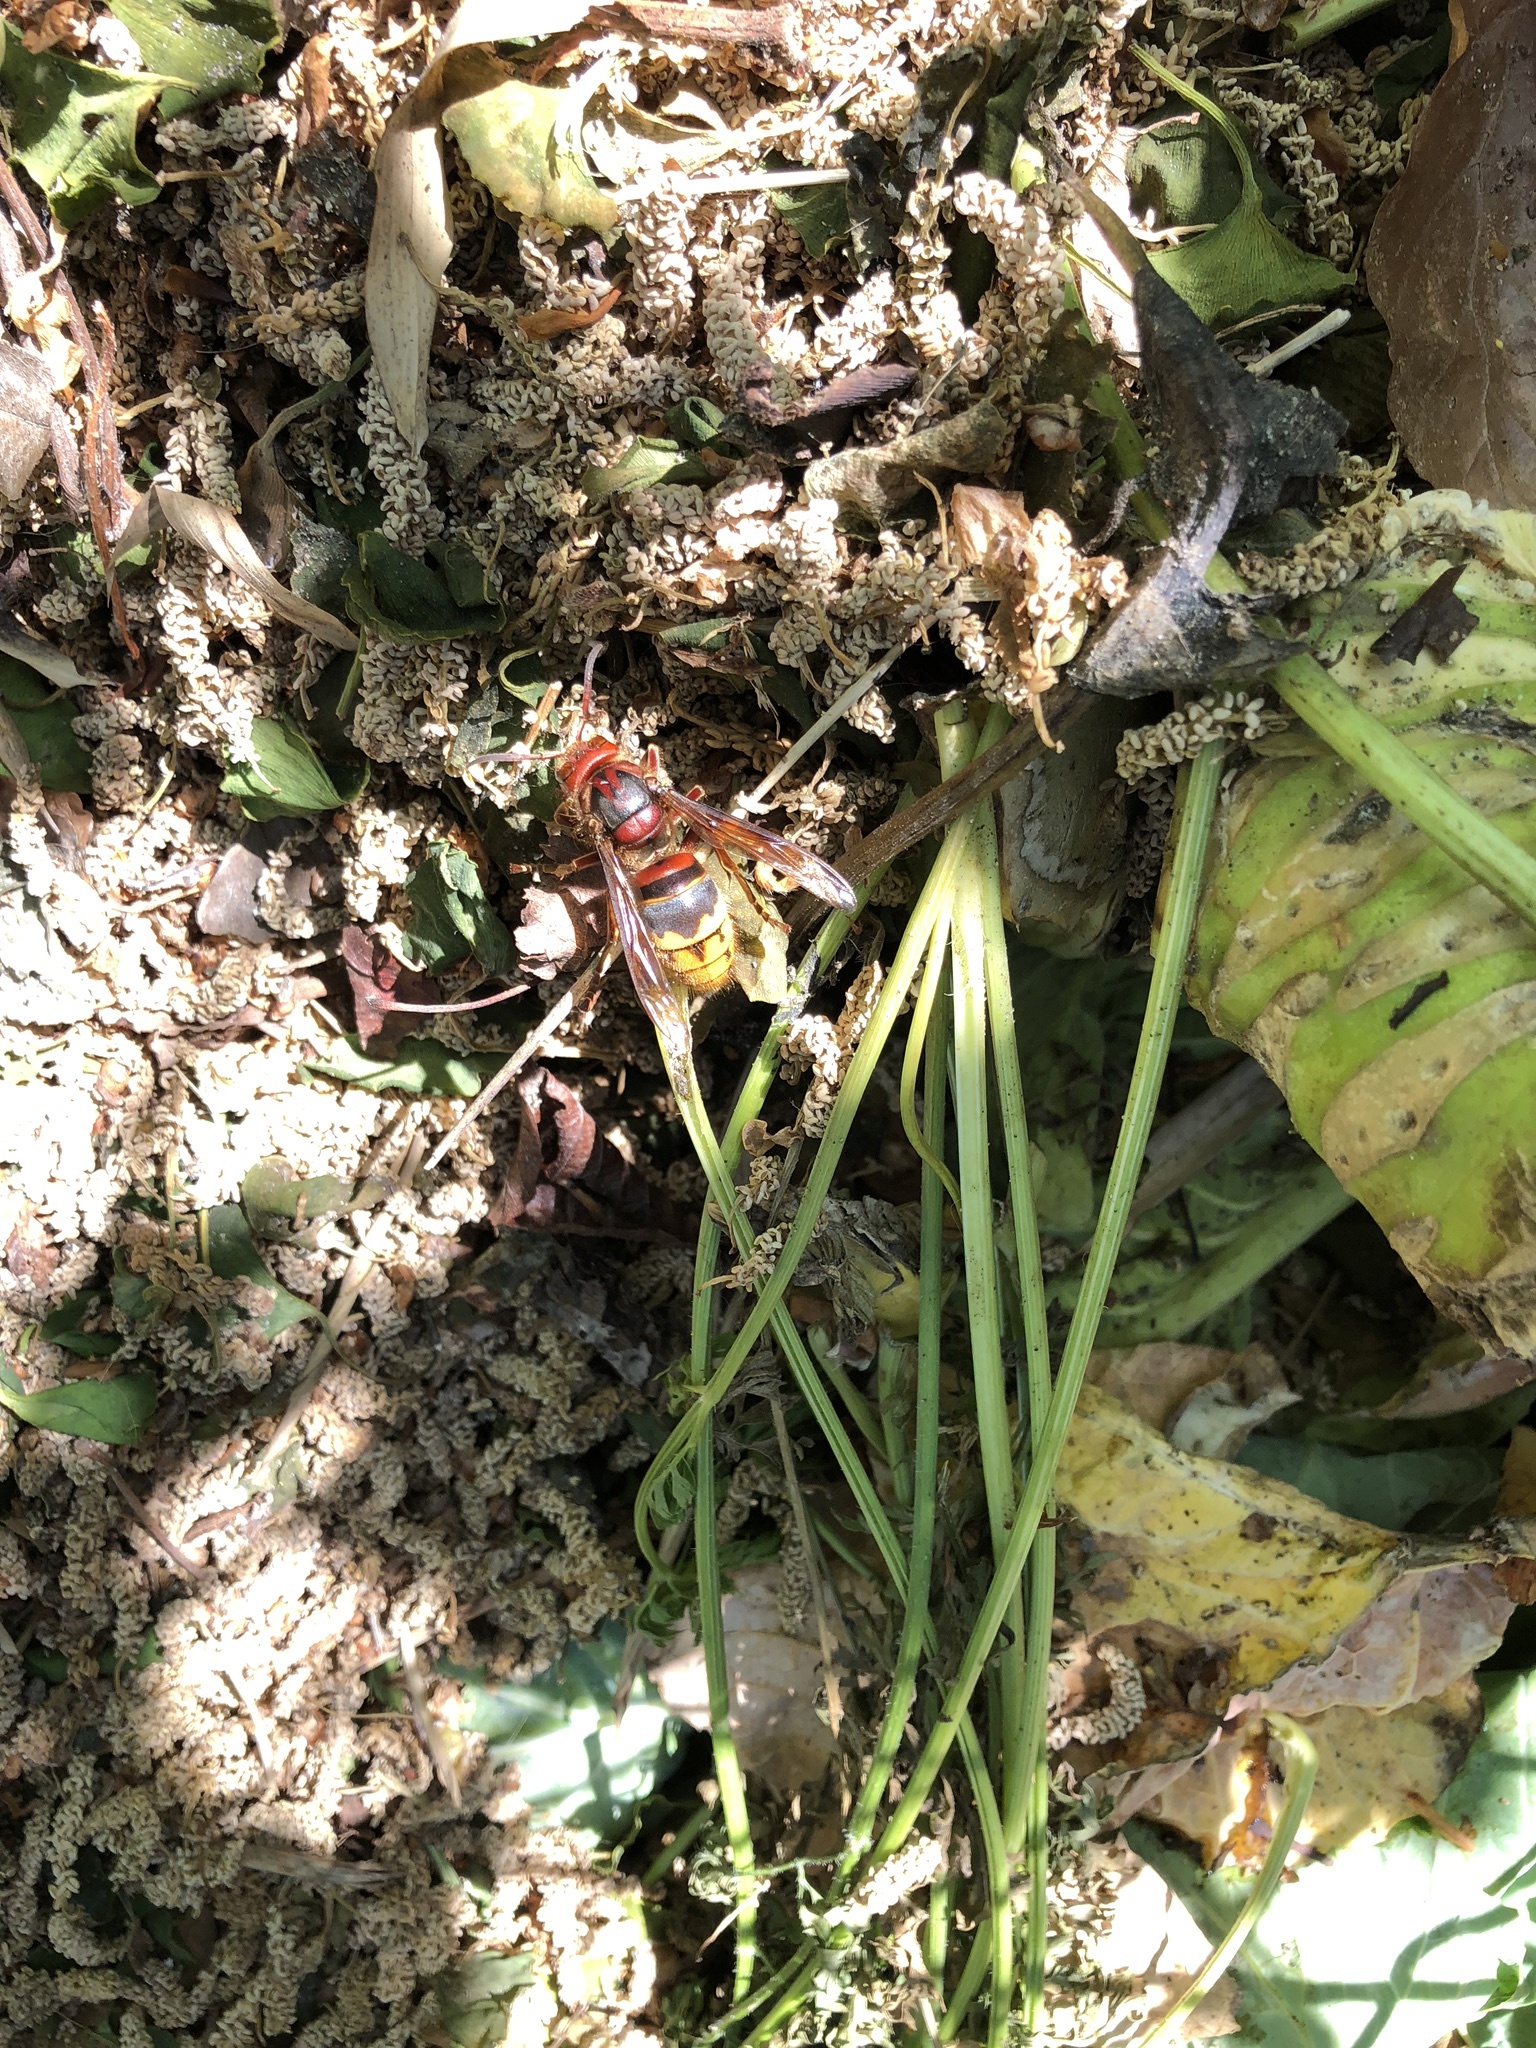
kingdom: Animalia
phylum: Arthropoda
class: Insecta
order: Hymenoptera
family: Vespidae
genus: Vespa
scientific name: Vespa crabro
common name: Hornet
